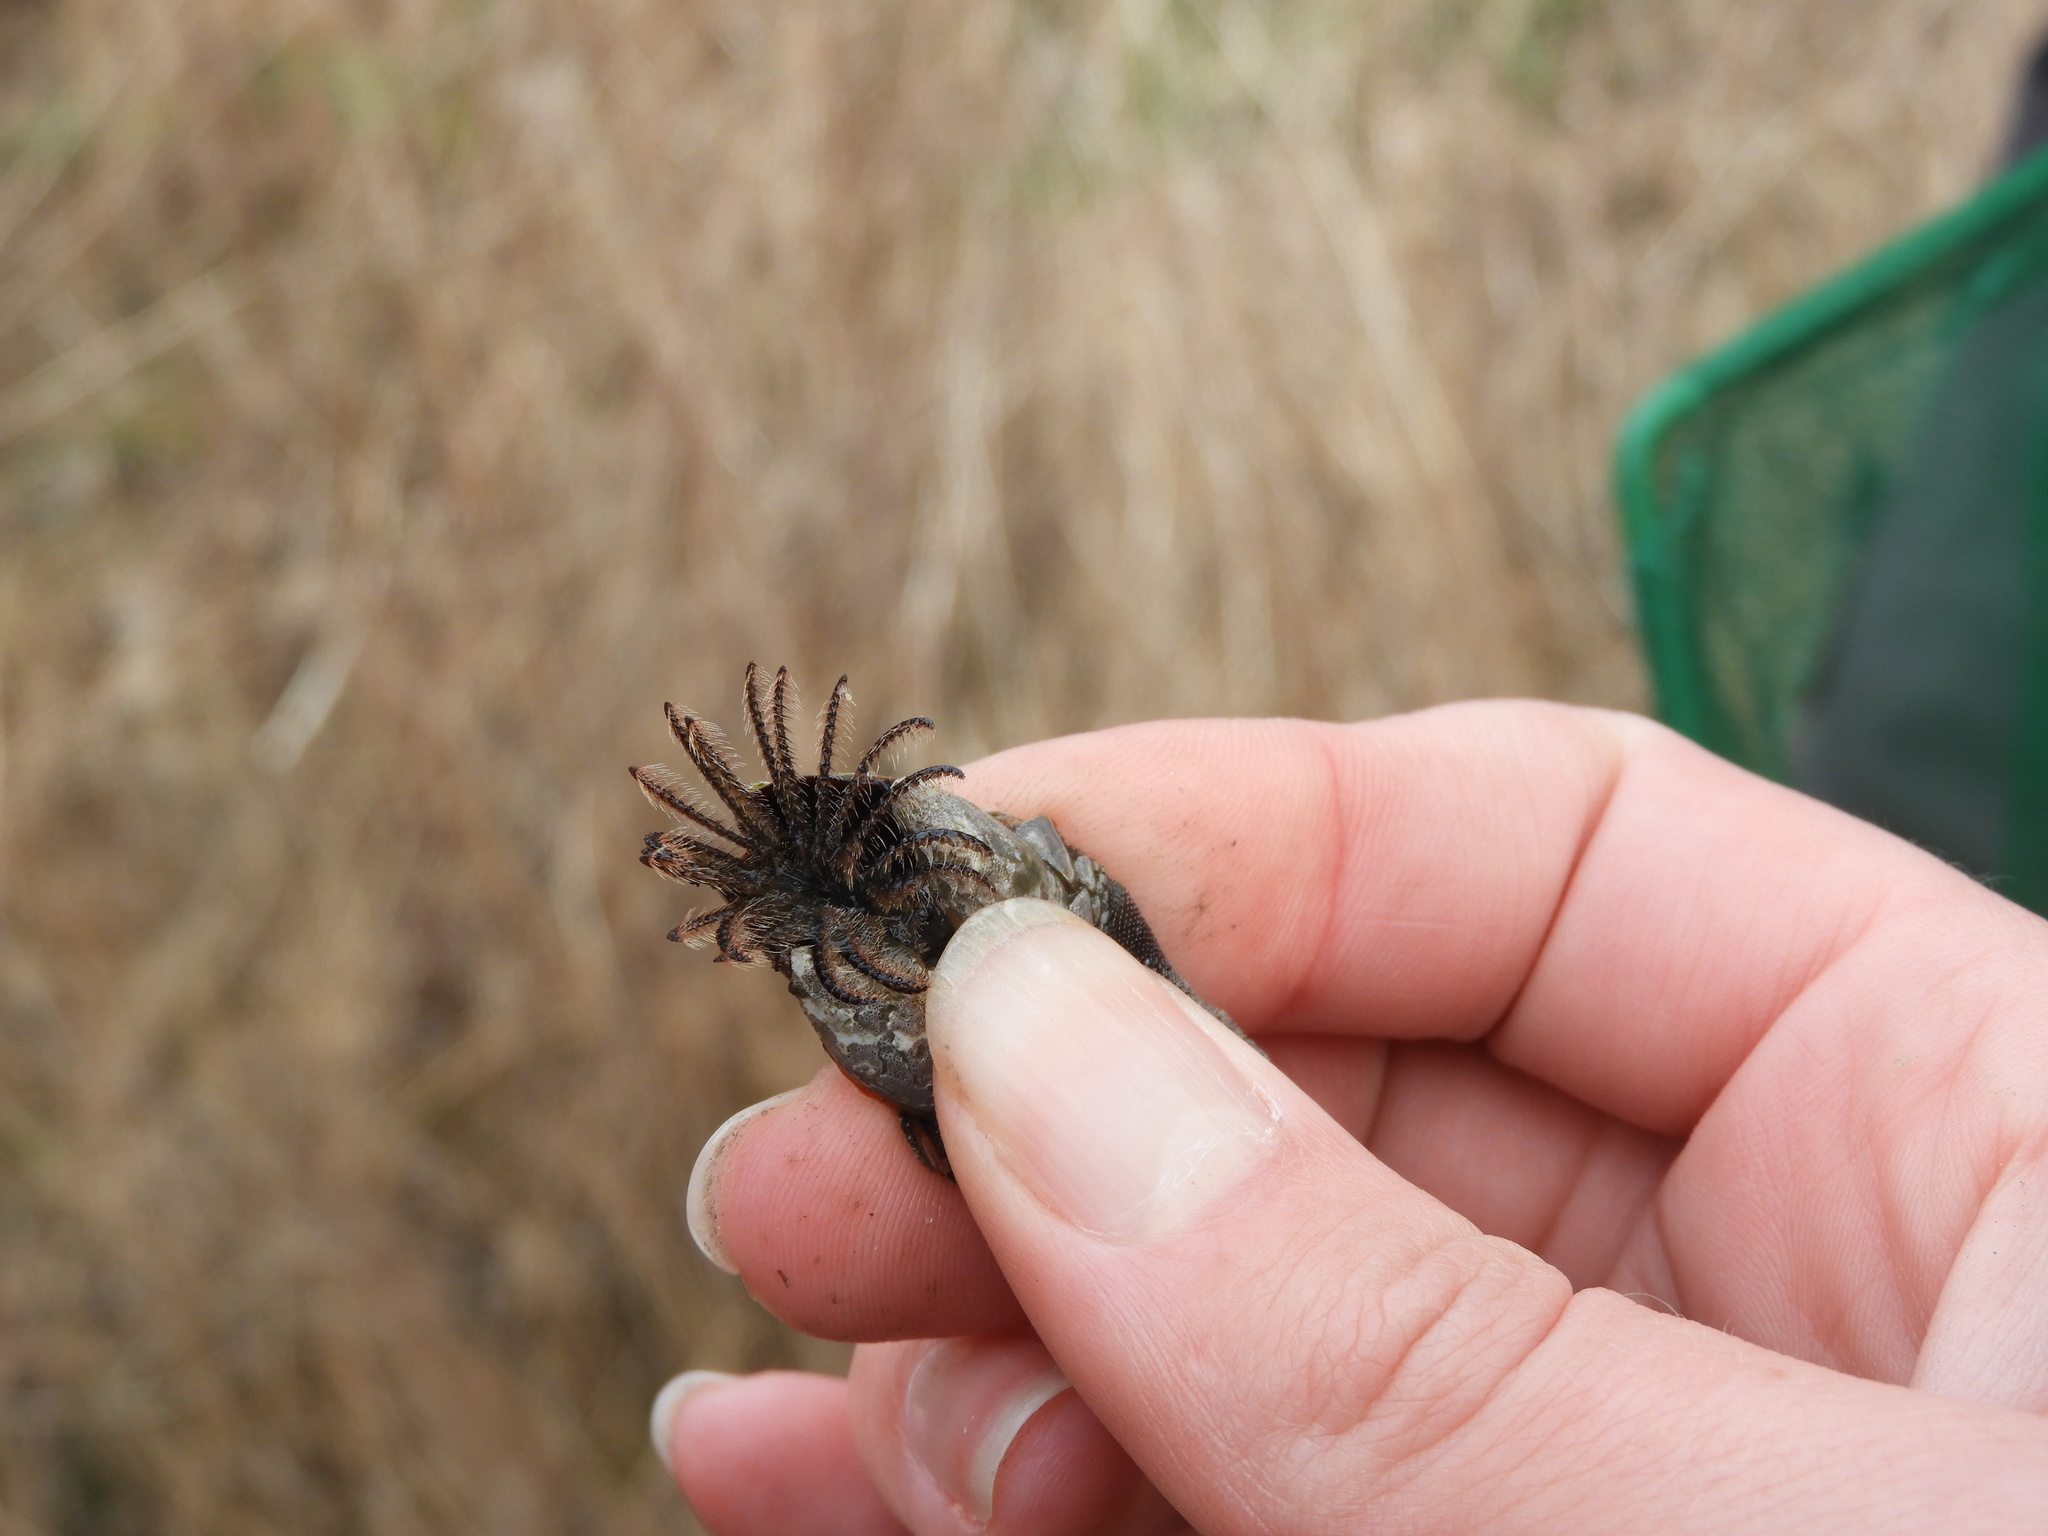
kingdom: Animalia
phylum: Arthropoda
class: Maxillopoda
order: Pedunculata
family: Pollicipedidae
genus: Pollicipes
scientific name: Pollicipes polymerus
